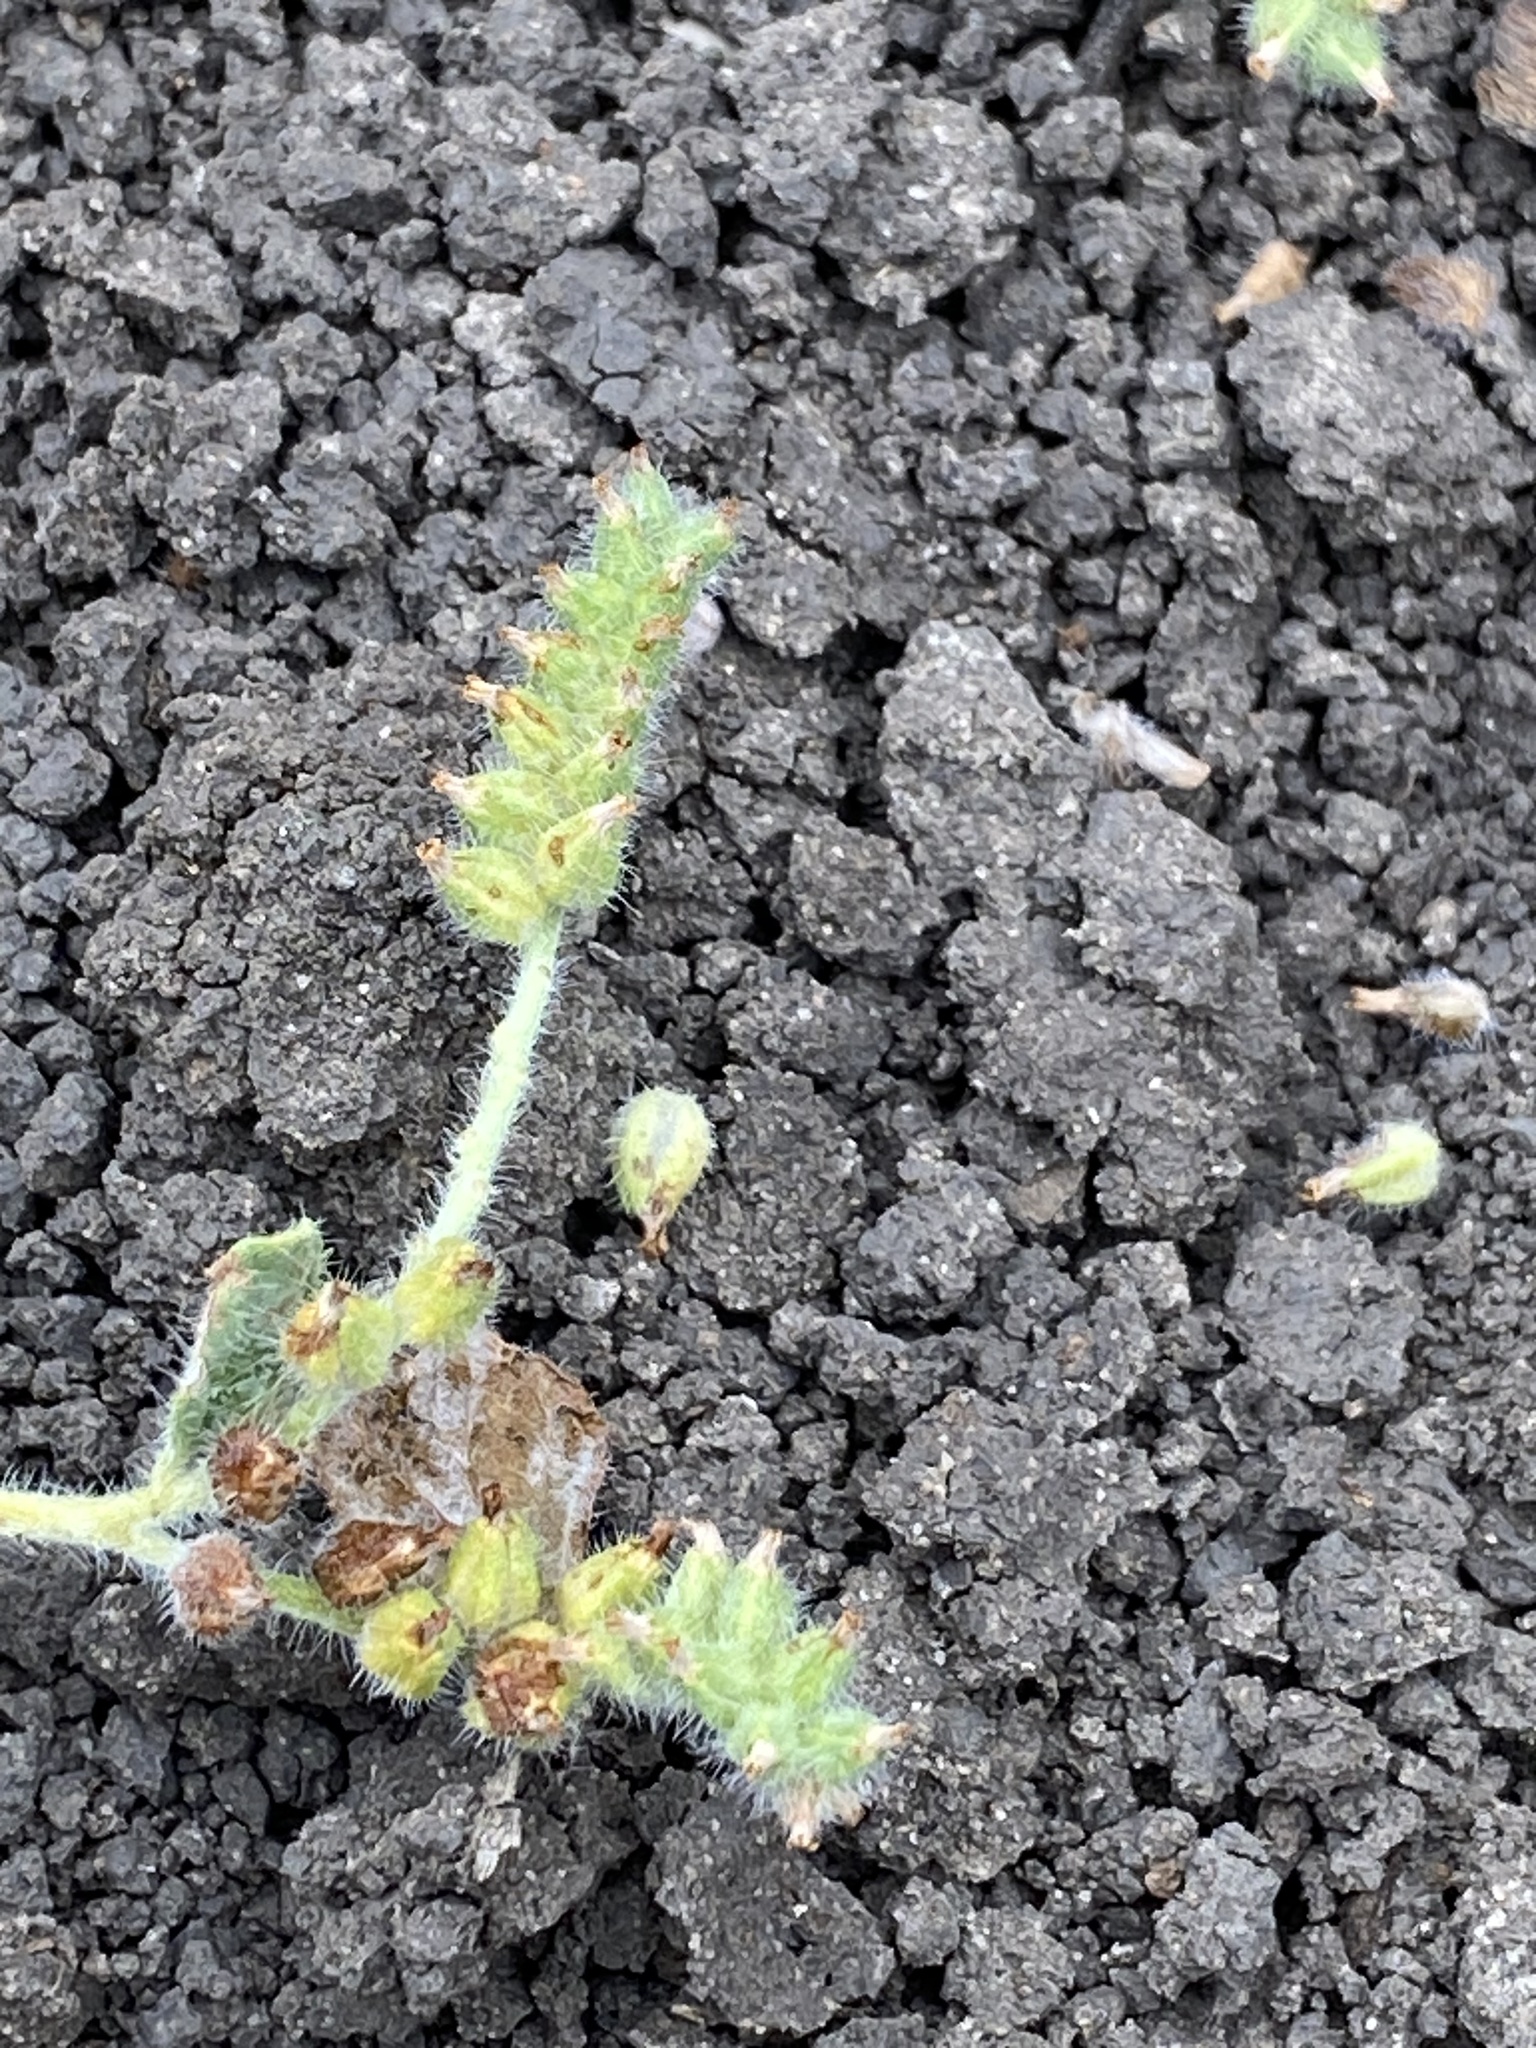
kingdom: Plantae
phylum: Tracheophyta
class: Magnoliopsida
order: Boraginales
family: Heliotropiaceae
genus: Heliotropium
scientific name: Heliotropium supinum
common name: Dwarf heliotrope
